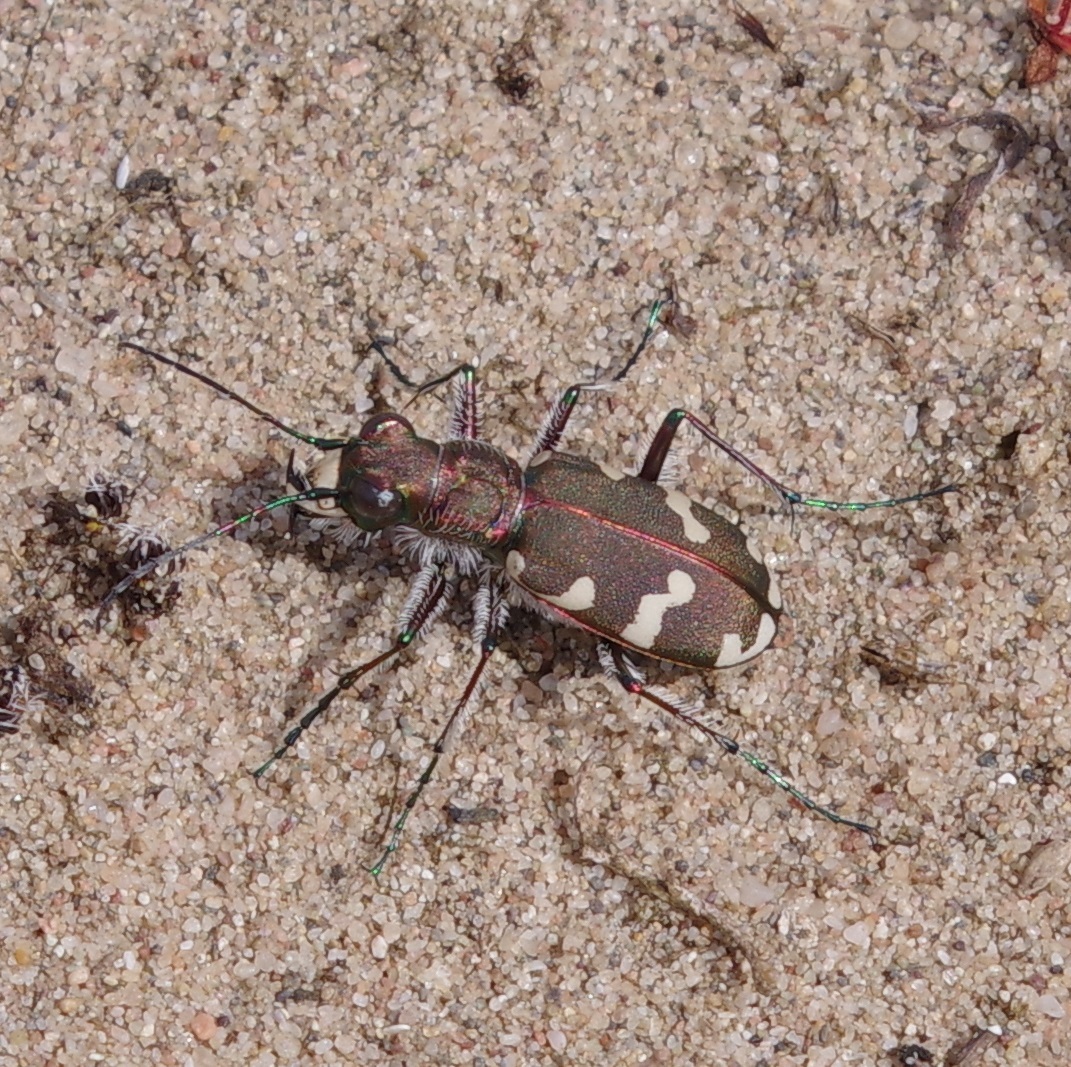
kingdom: Animalia
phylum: Arthropoda
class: Insecta
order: Coleoptera
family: Carabidae
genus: Cicindela
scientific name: Cicindela hybrida
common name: Northern dune tiger beetle
